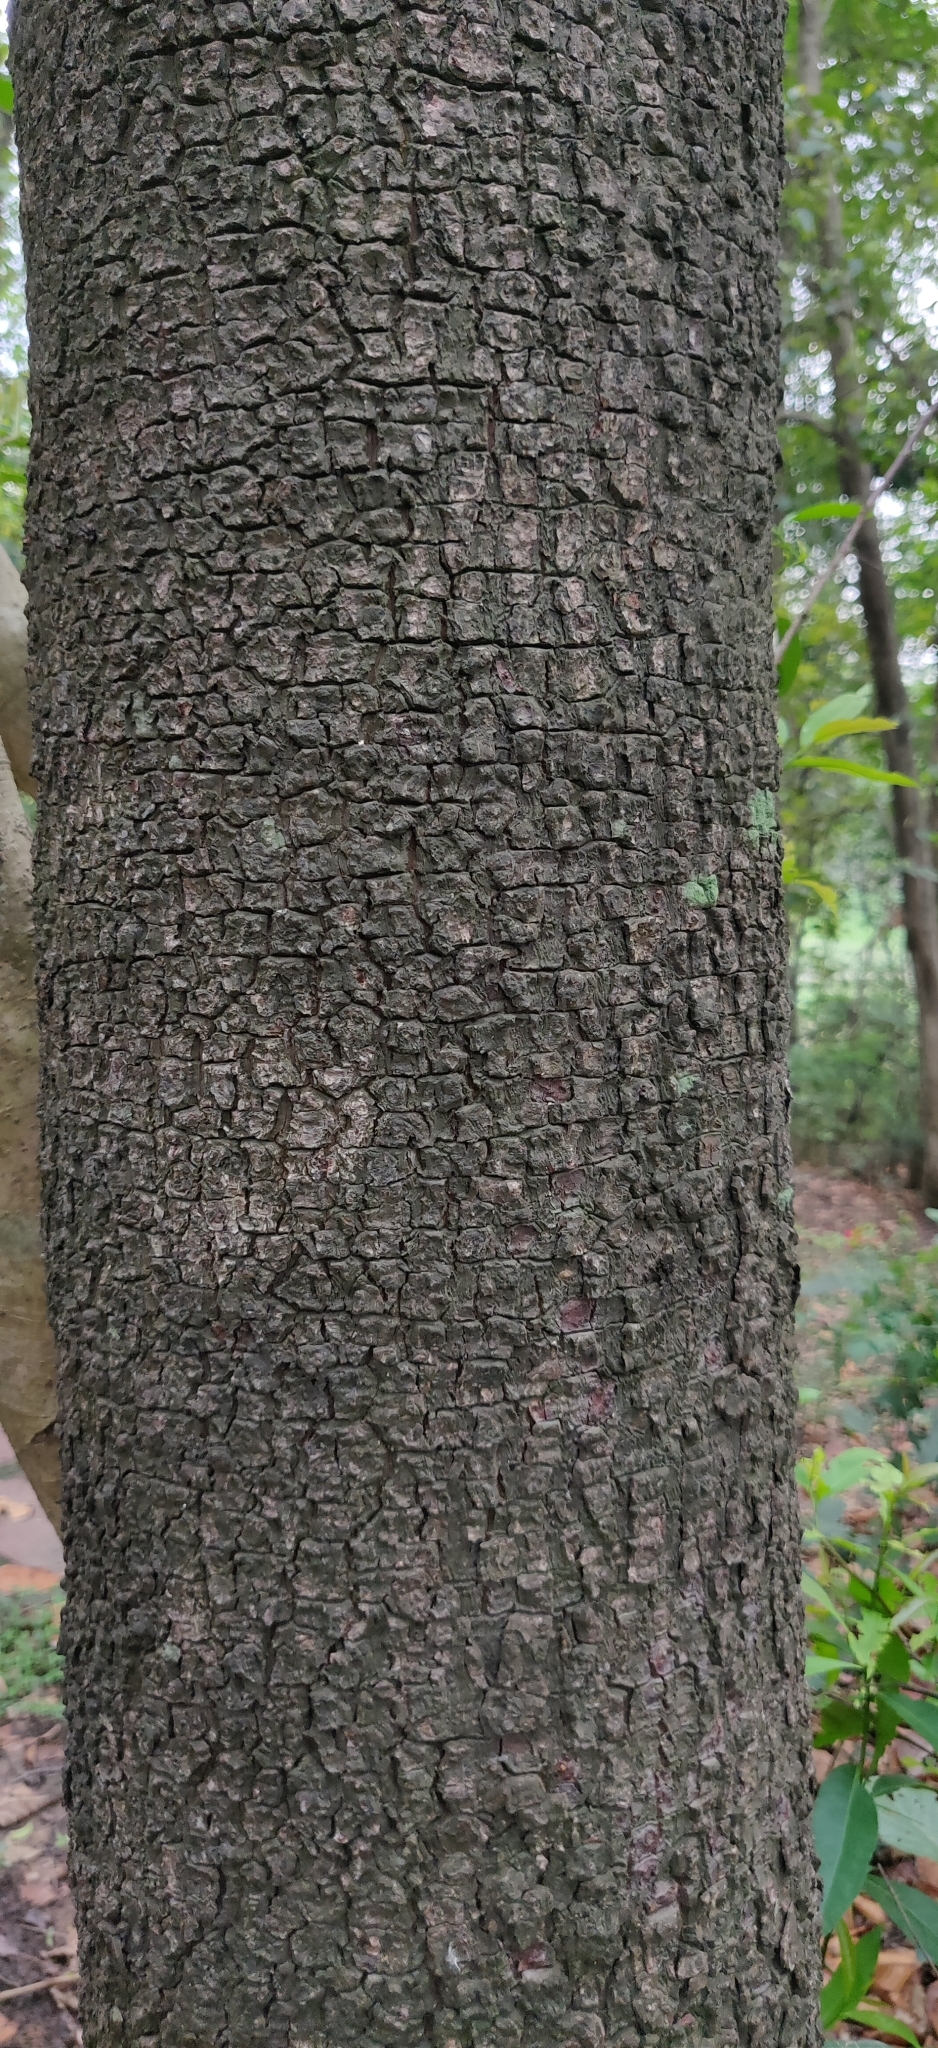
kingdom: Plantae
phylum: Tracheophyta
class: Magnoliopsida
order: Rosales
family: Moraceae
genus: Artocarpus
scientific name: Artocarpus lacucha
